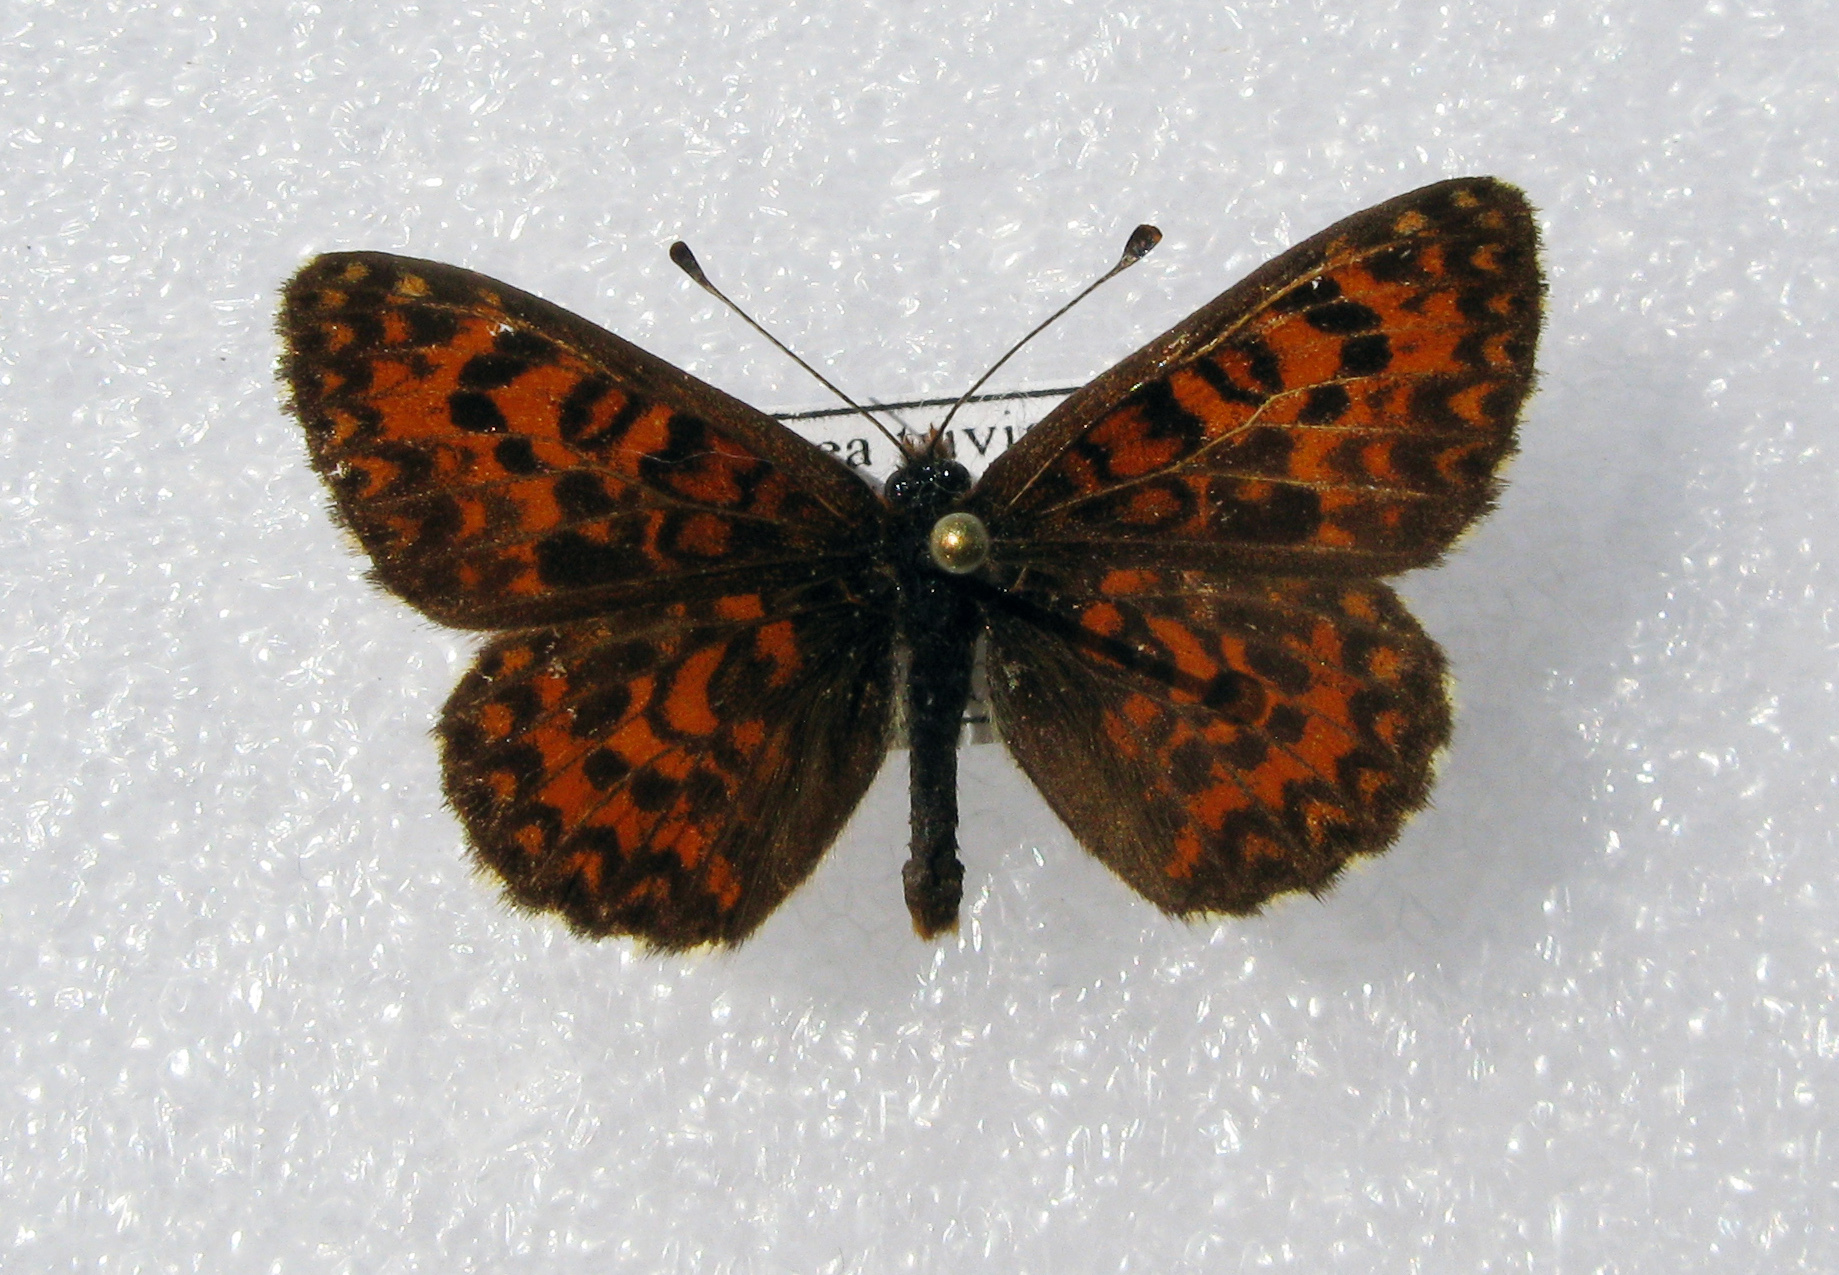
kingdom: Animalia
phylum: Arthropoda
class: Insecta
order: Lepidoptera
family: Nymphalidae
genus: Melitaea
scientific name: Melitaea trivia
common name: Lesser spotted fritillary
